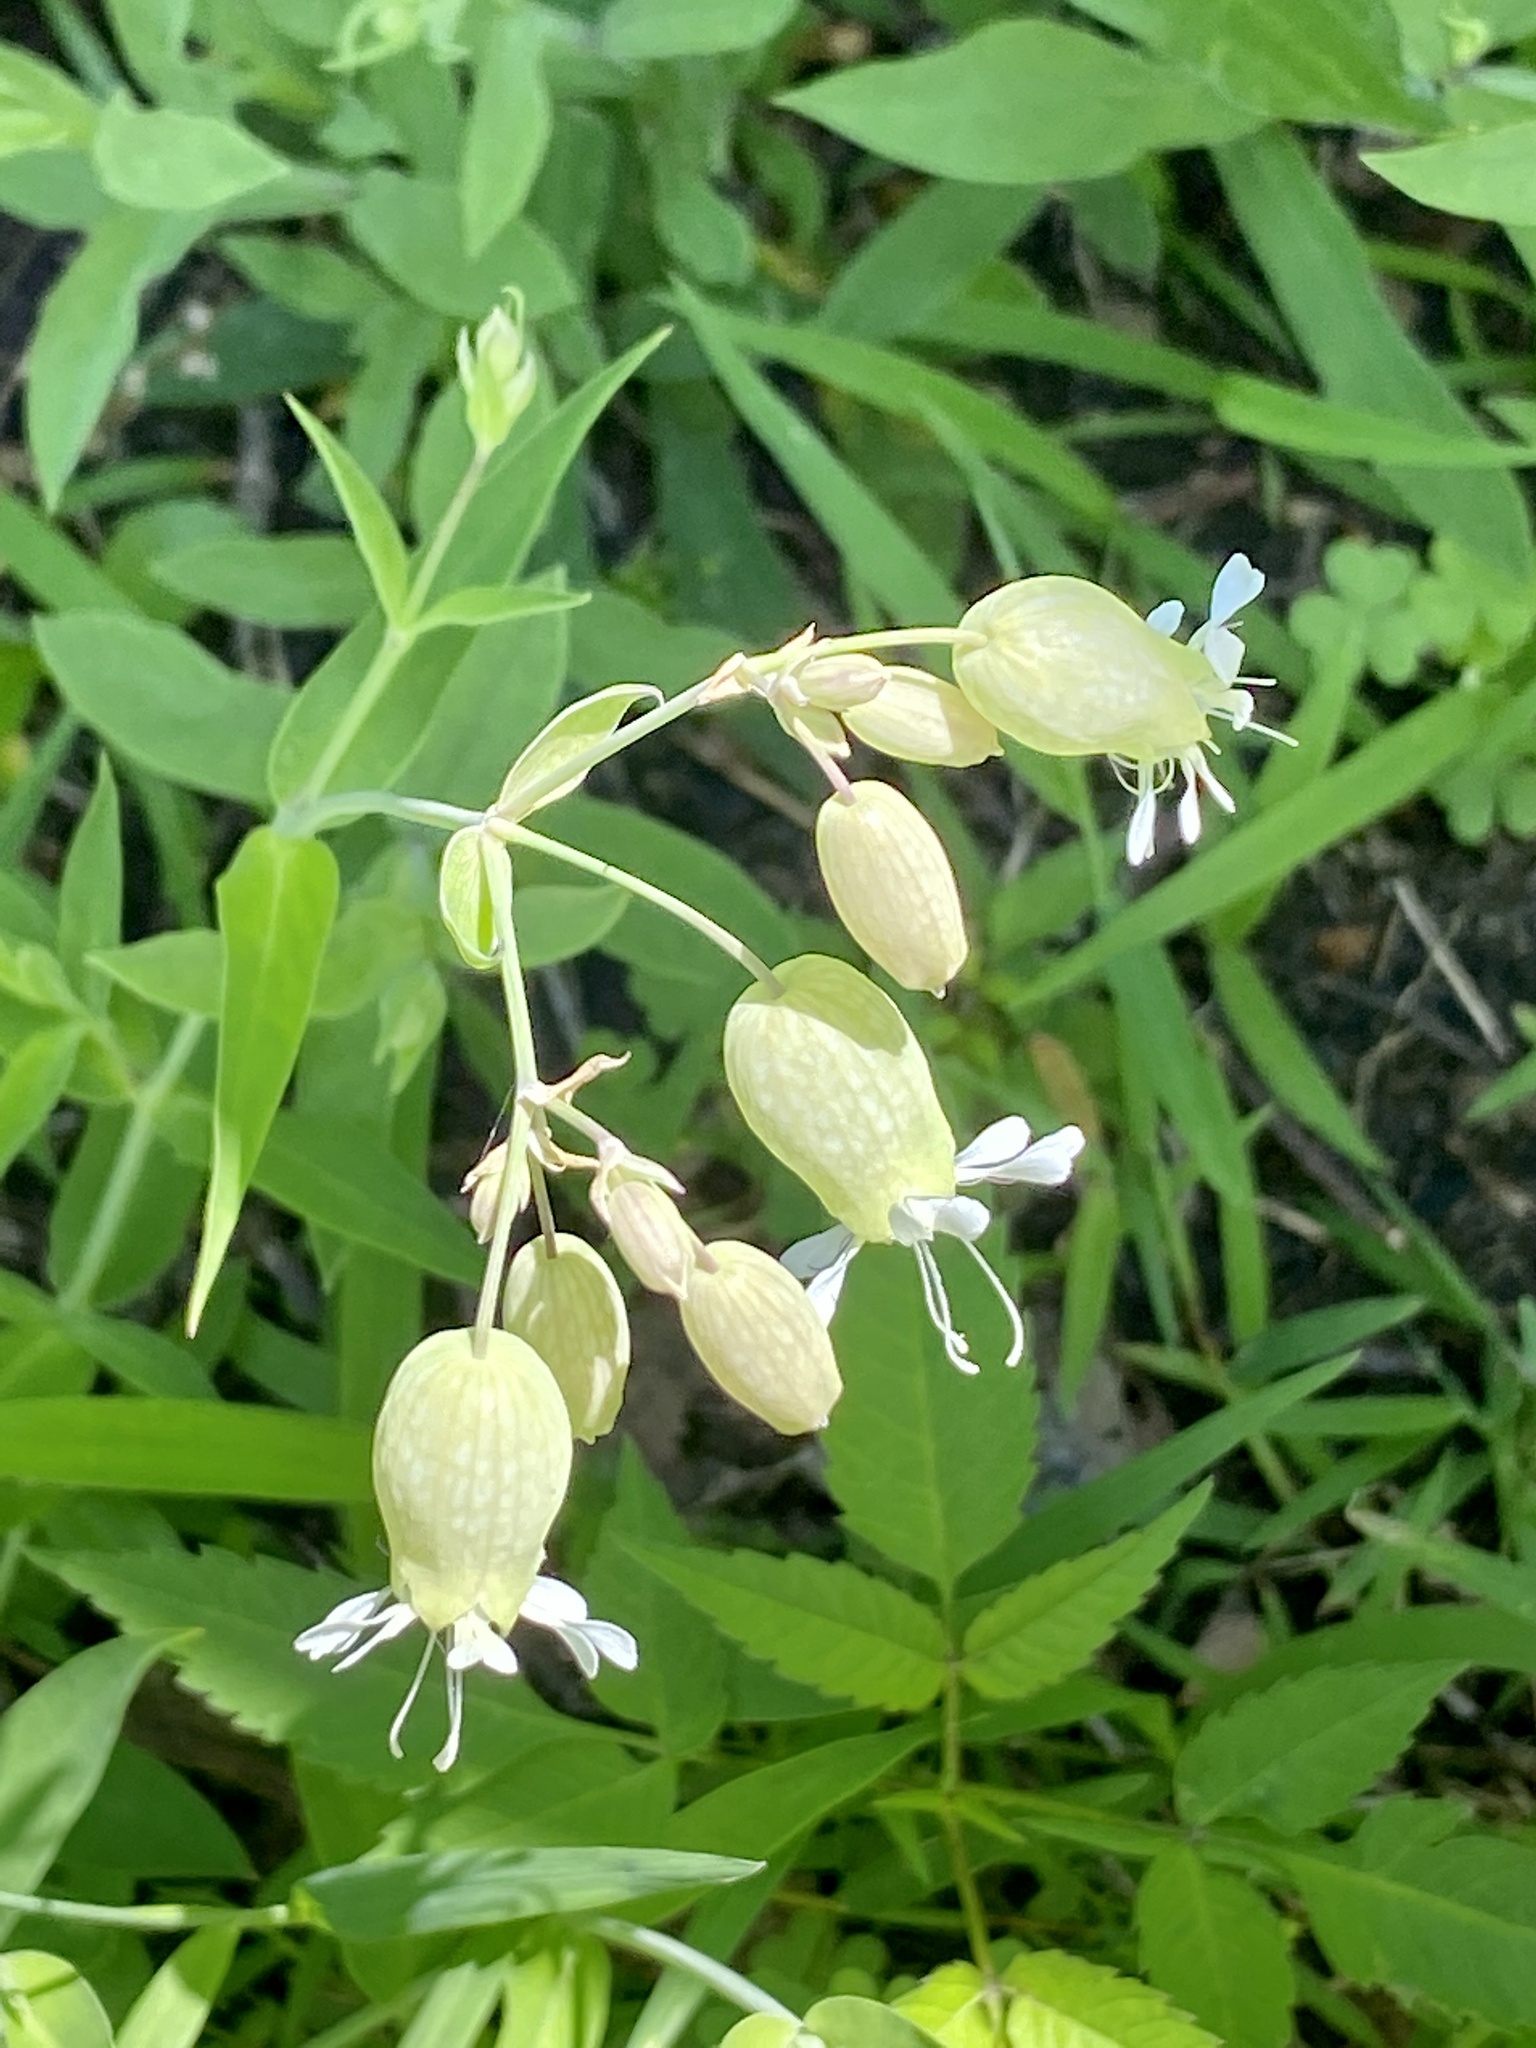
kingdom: Plantae
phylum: Tracheophyta
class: Magnoliopsida
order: Caryophyllales
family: Caryophyllaceae
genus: Silene
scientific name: Silene vulgaris
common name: Bladder campion
